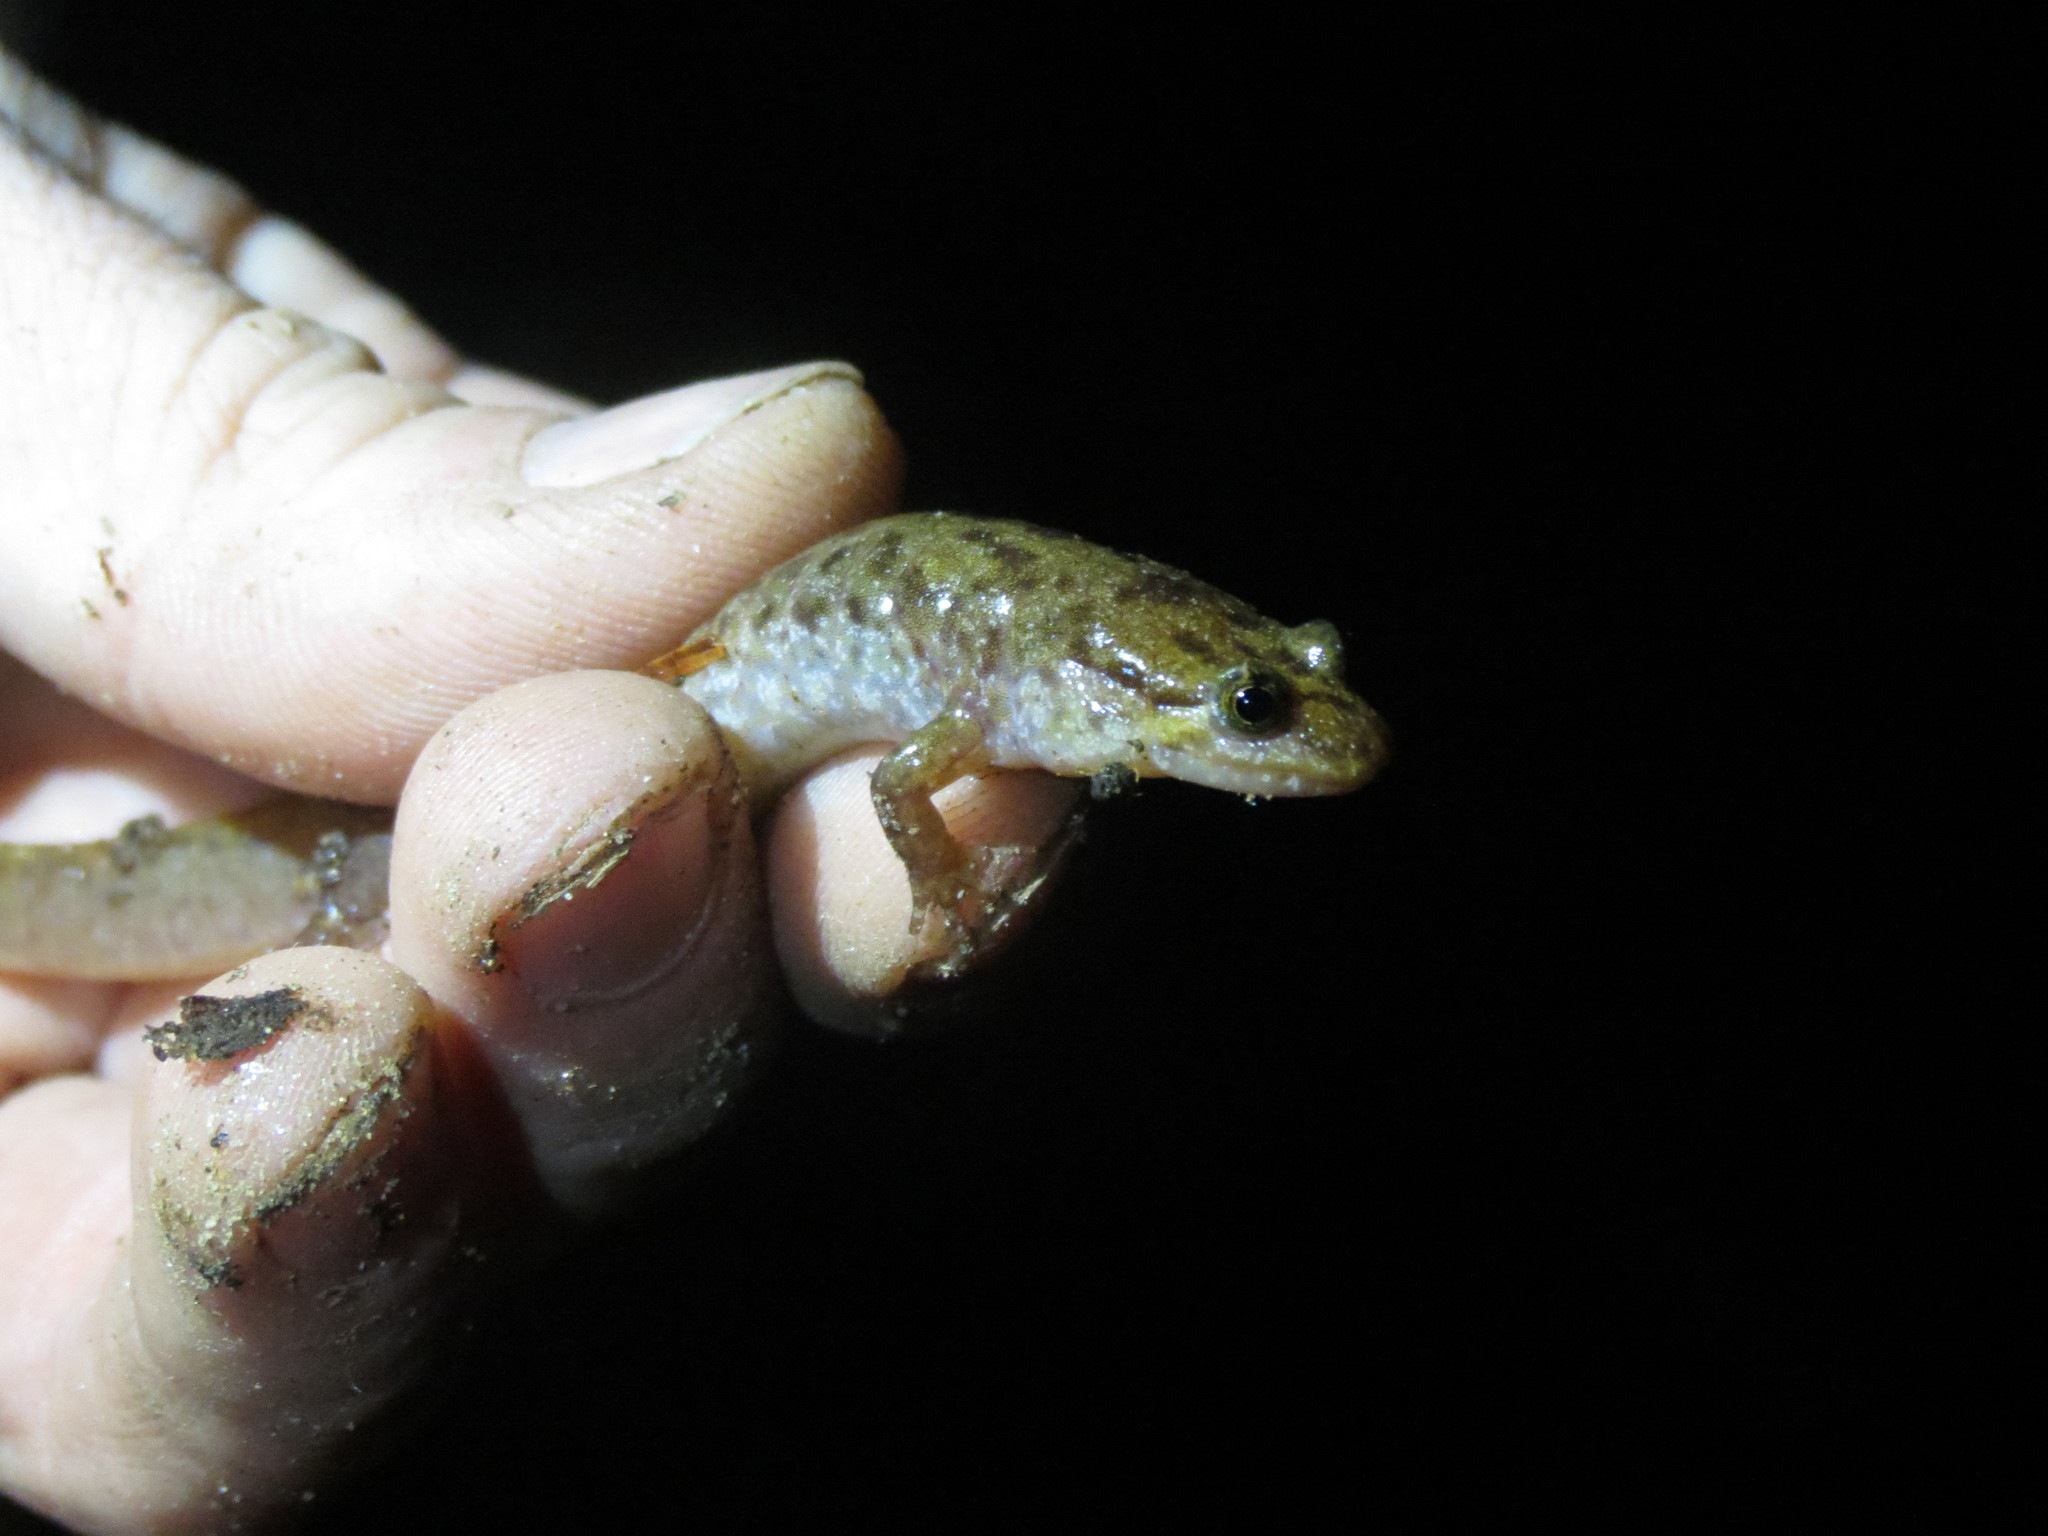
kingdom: Animalia
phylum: Chordata
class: Amphibia
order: Caudata
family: Plethodontidae
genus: Desmognathus
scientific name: Desmognathus monticola
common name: Seal salamander
